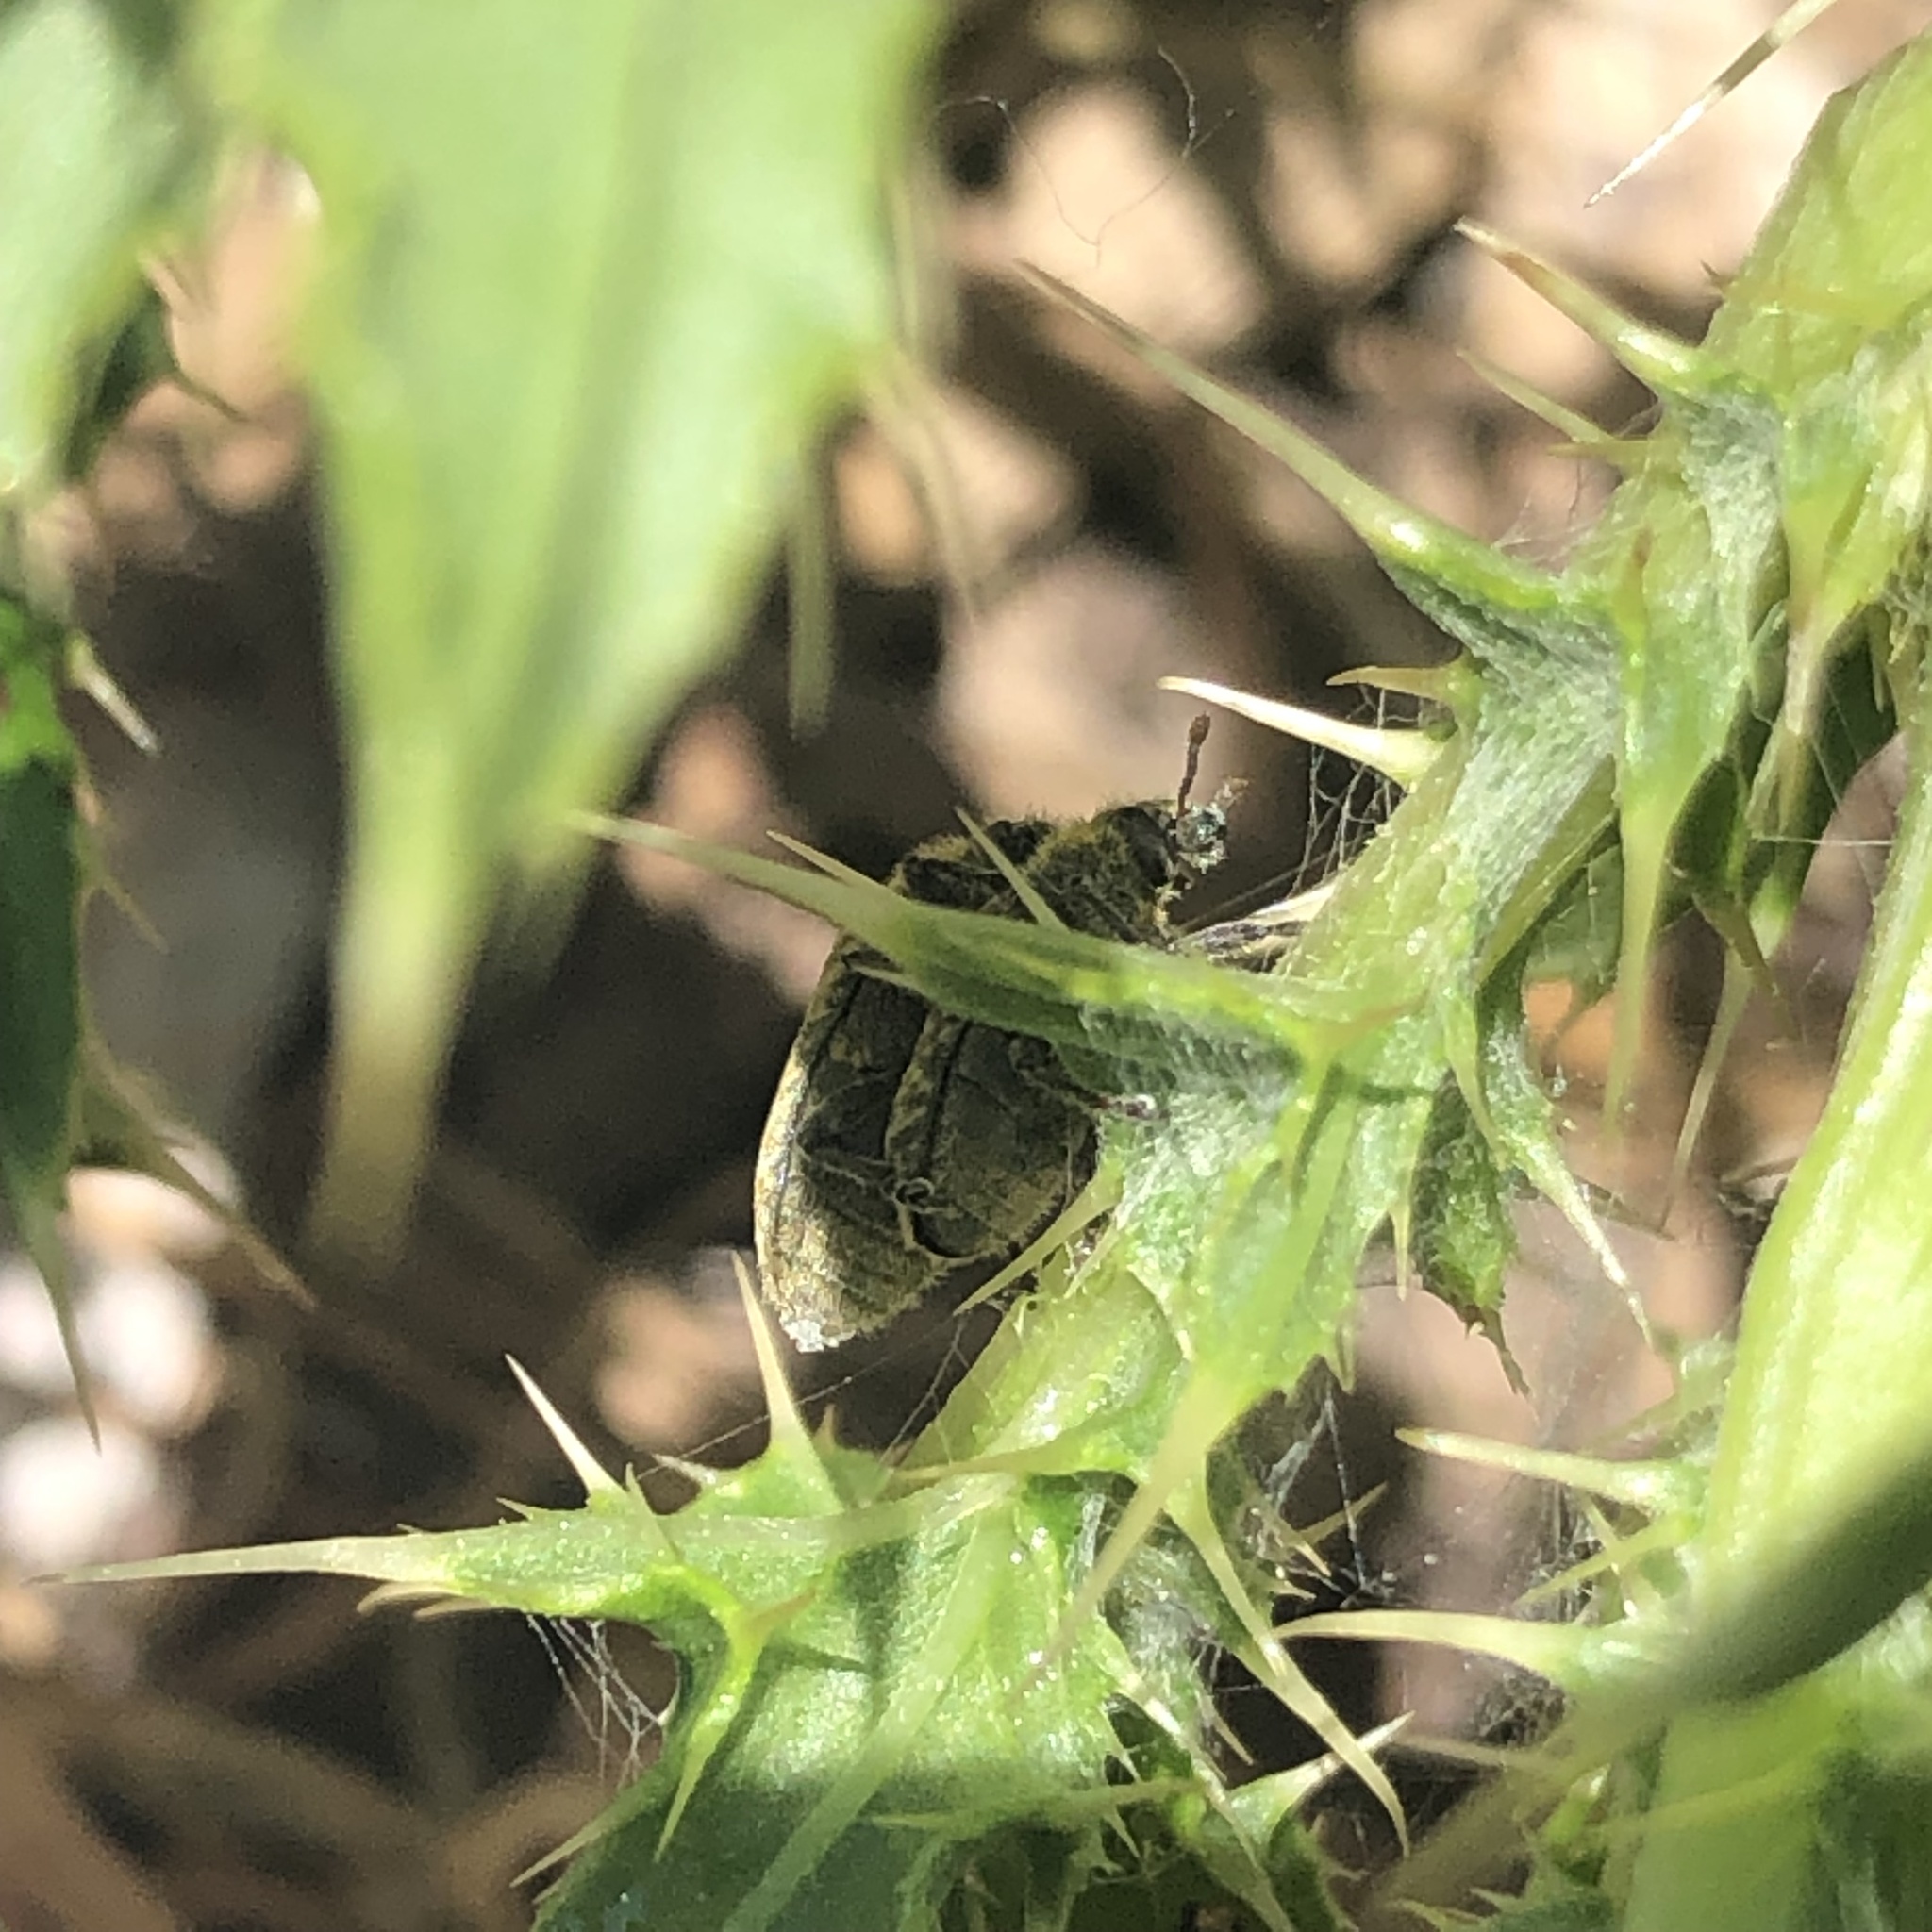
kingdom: Animalia
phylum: Arthropoda
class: Insecta
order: Coleoptera
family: Curculionidae
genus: Rhinocyllus
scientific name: Rhinocyllus conicus
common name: Weevil
